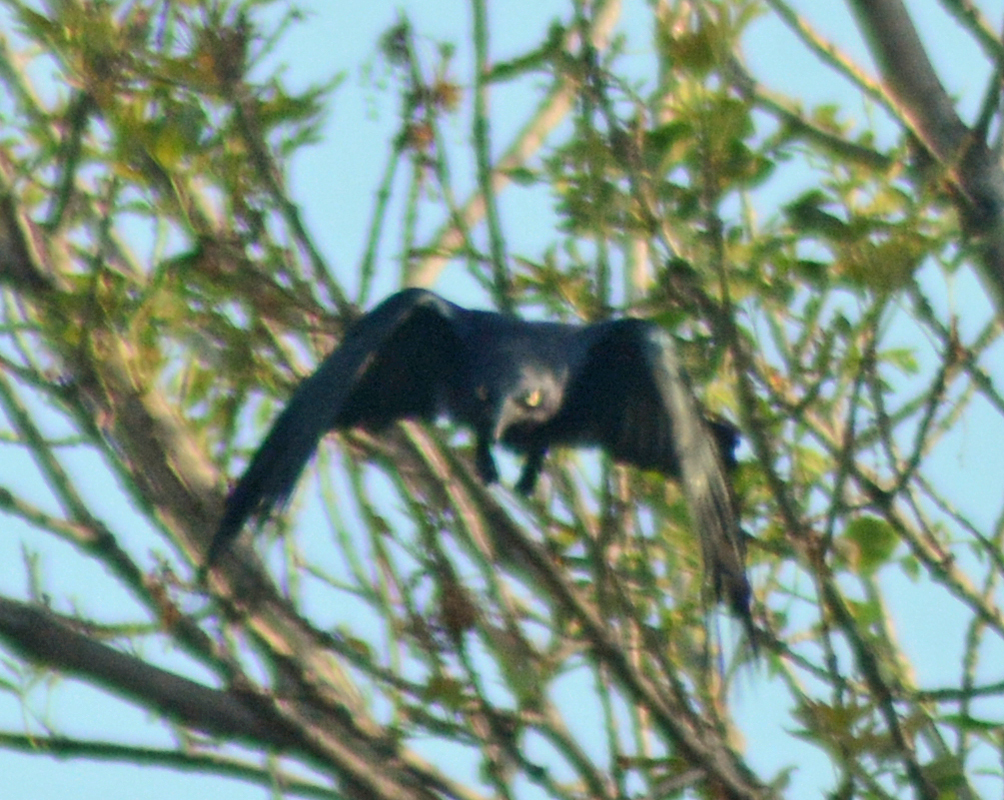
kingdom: Animalia
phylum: Chordata
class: Aves
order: Passeriformes
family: Icteridae
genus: Quiscalus
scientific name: Quiscalus mexicanus
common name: Great-tailed grackle
